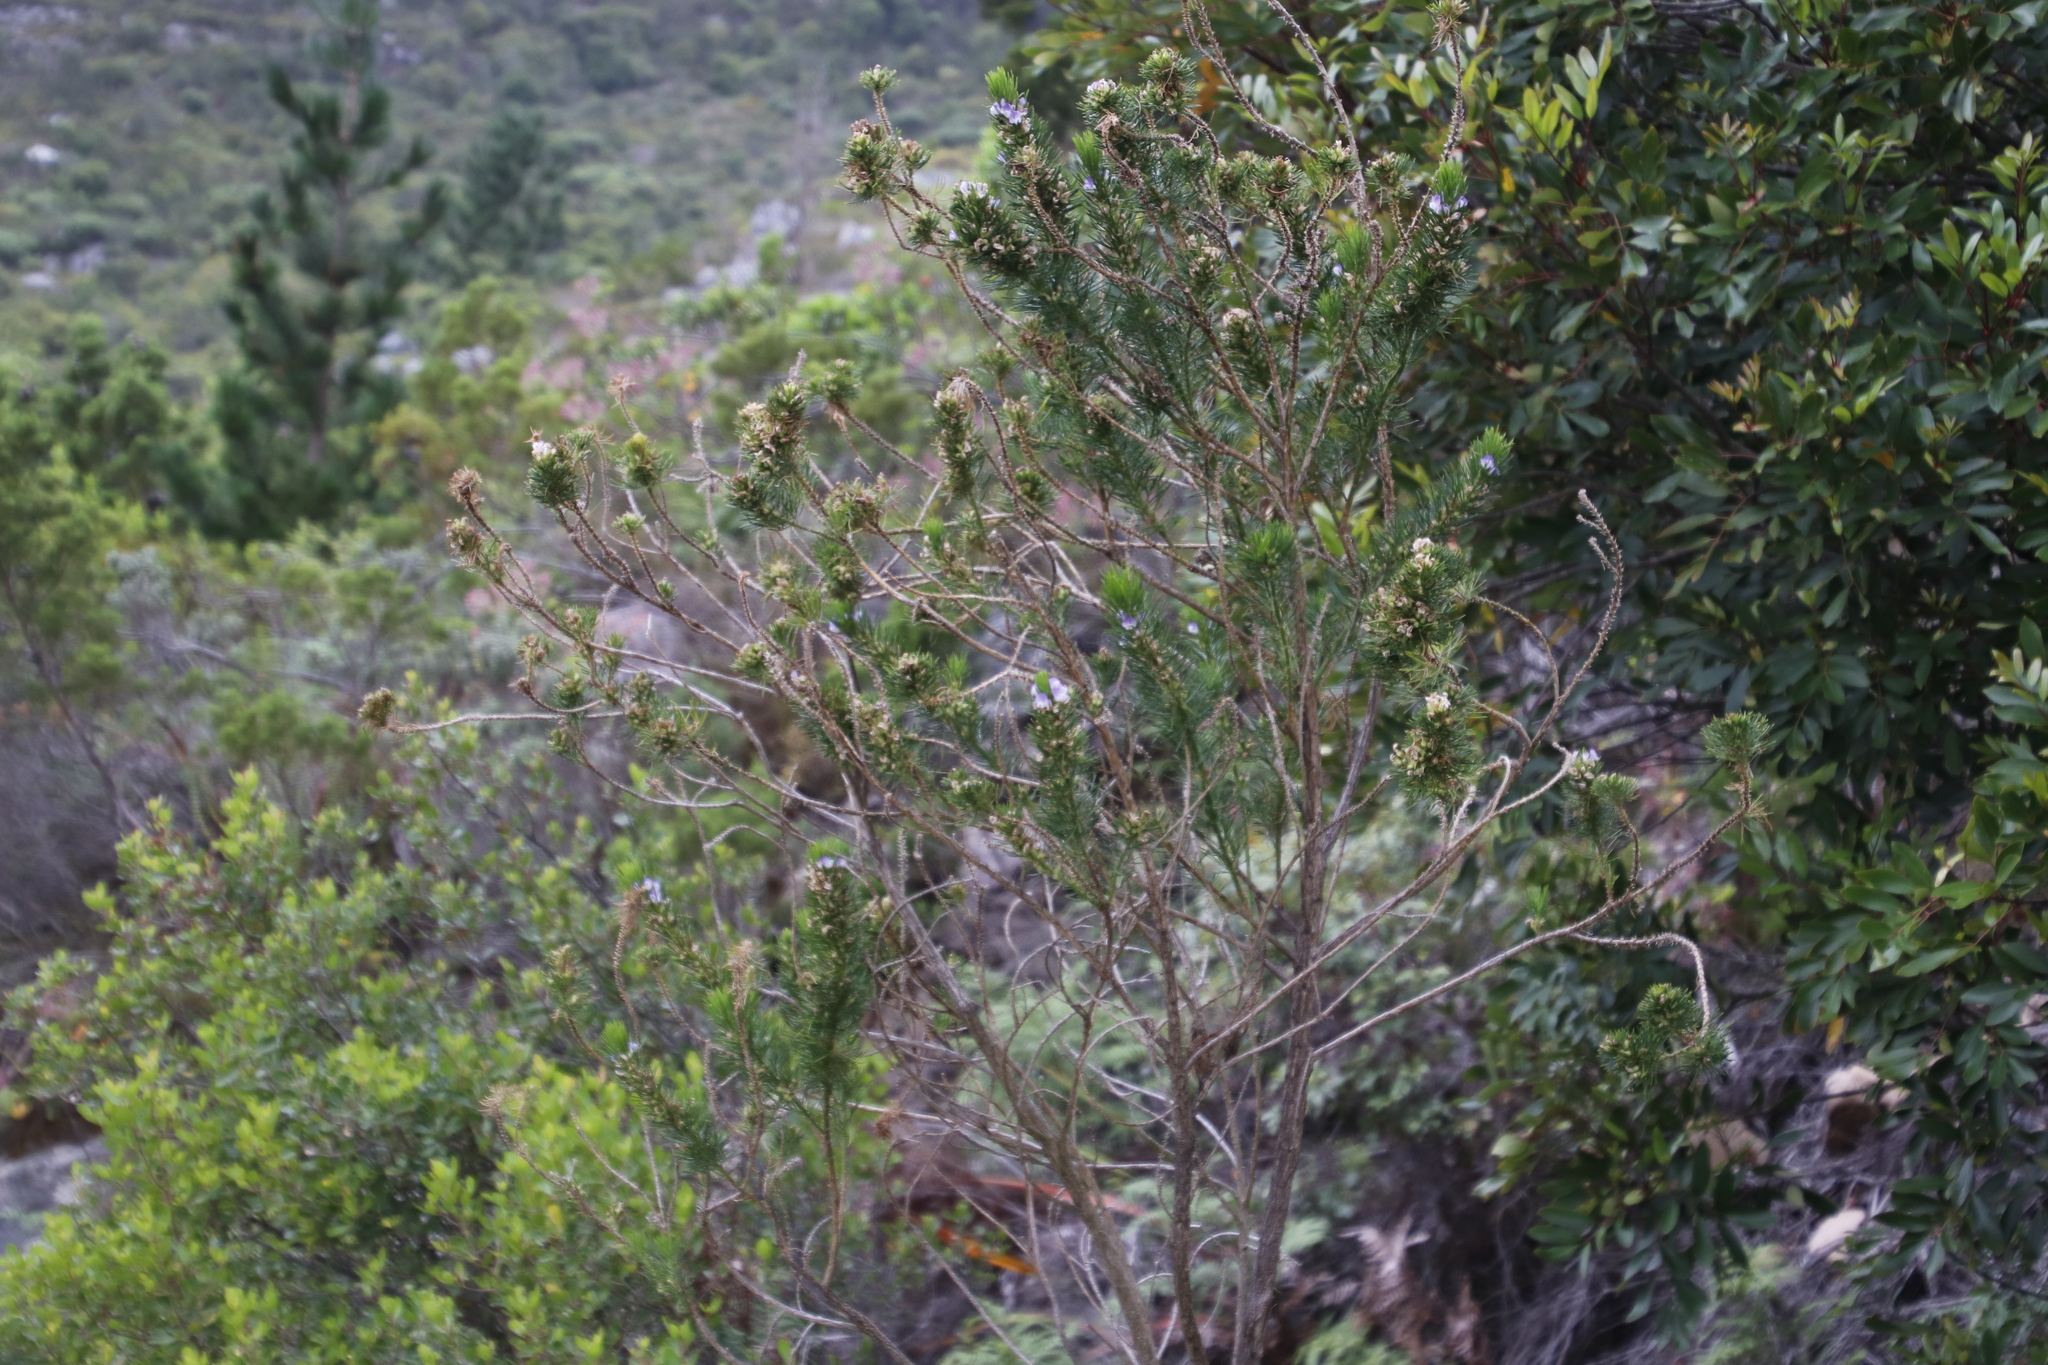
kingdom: Plantae
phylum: Tracheophyta
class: Magnoliopsida
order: Fabales
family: Fabaceae
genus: Psoralea
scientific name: Psoralea pinnata
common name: African scurfpea
